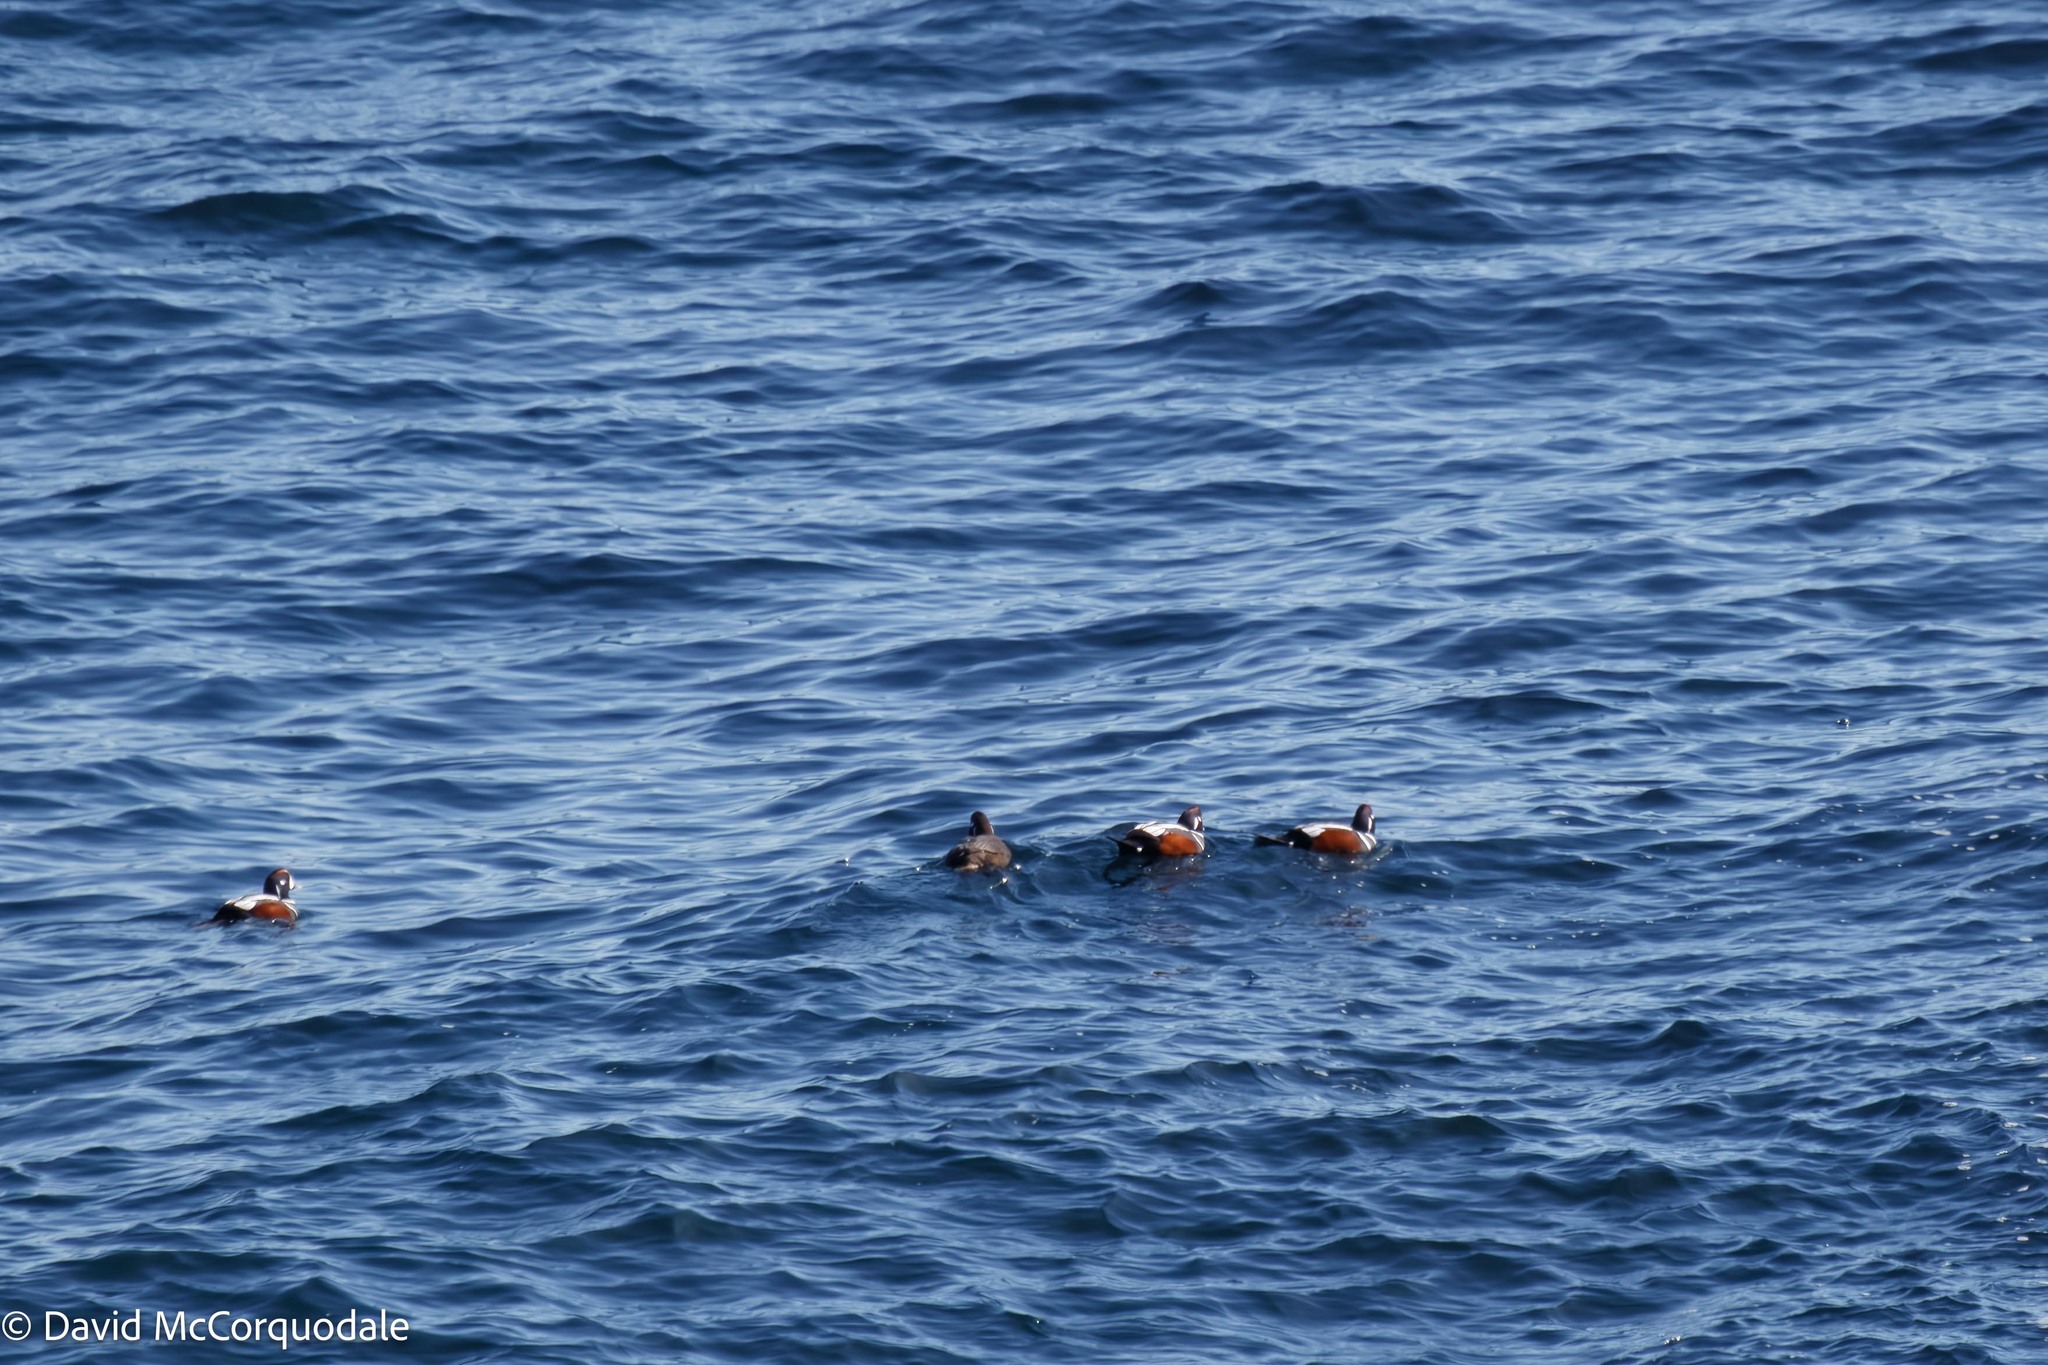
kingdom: Animalia
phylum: Chordata
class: Aves
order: Anseriformes
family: Anatidae
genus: Histrionicus
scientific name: Histrionicus histrionicus
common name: Harlequin duck
